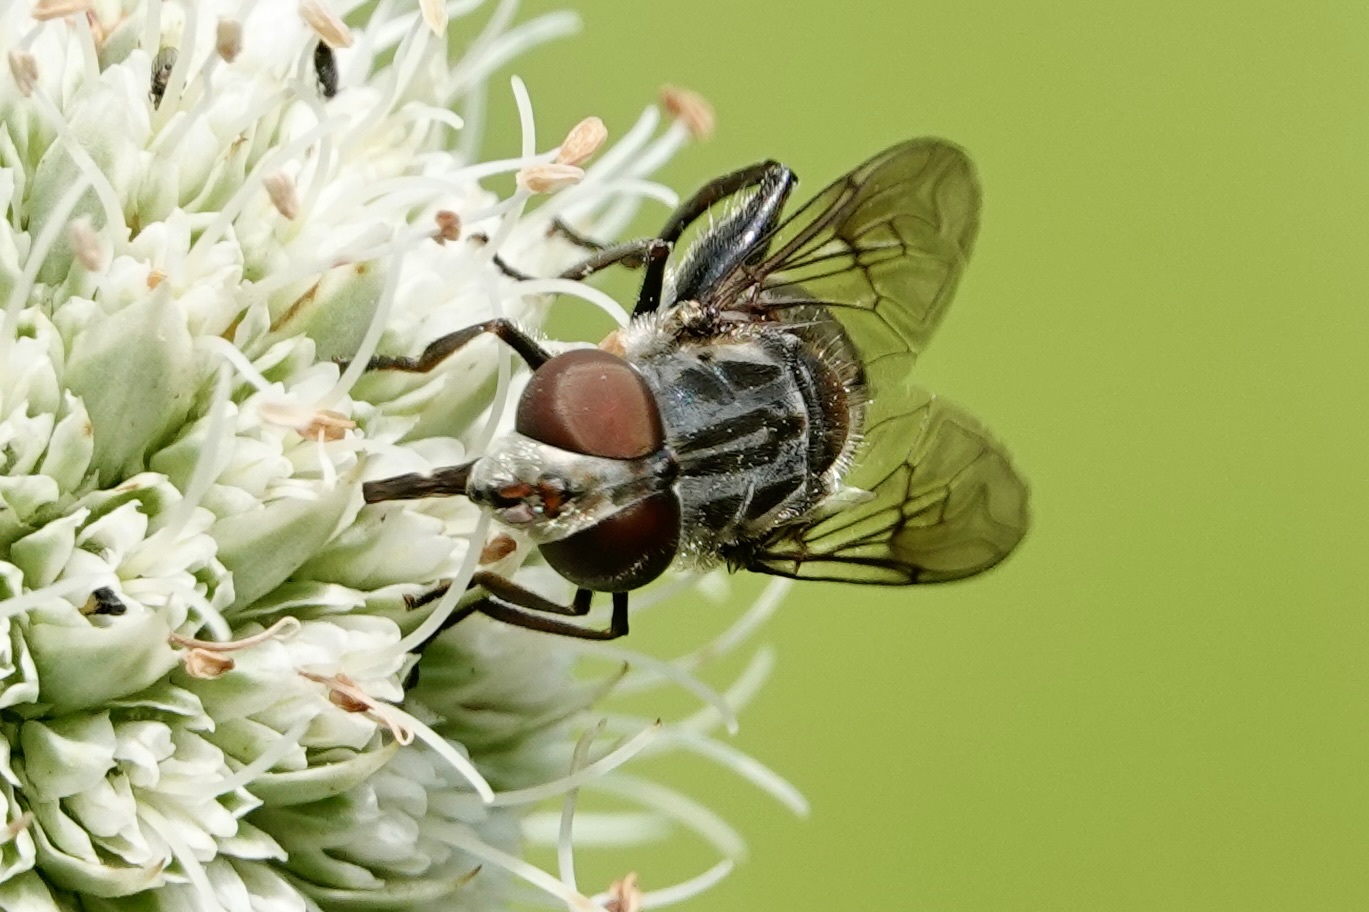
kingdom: Animalia
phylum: Arthropoda
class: Insecta
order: Diptera
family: Syrphidae
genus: Palpada
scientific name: Palpada furcata
